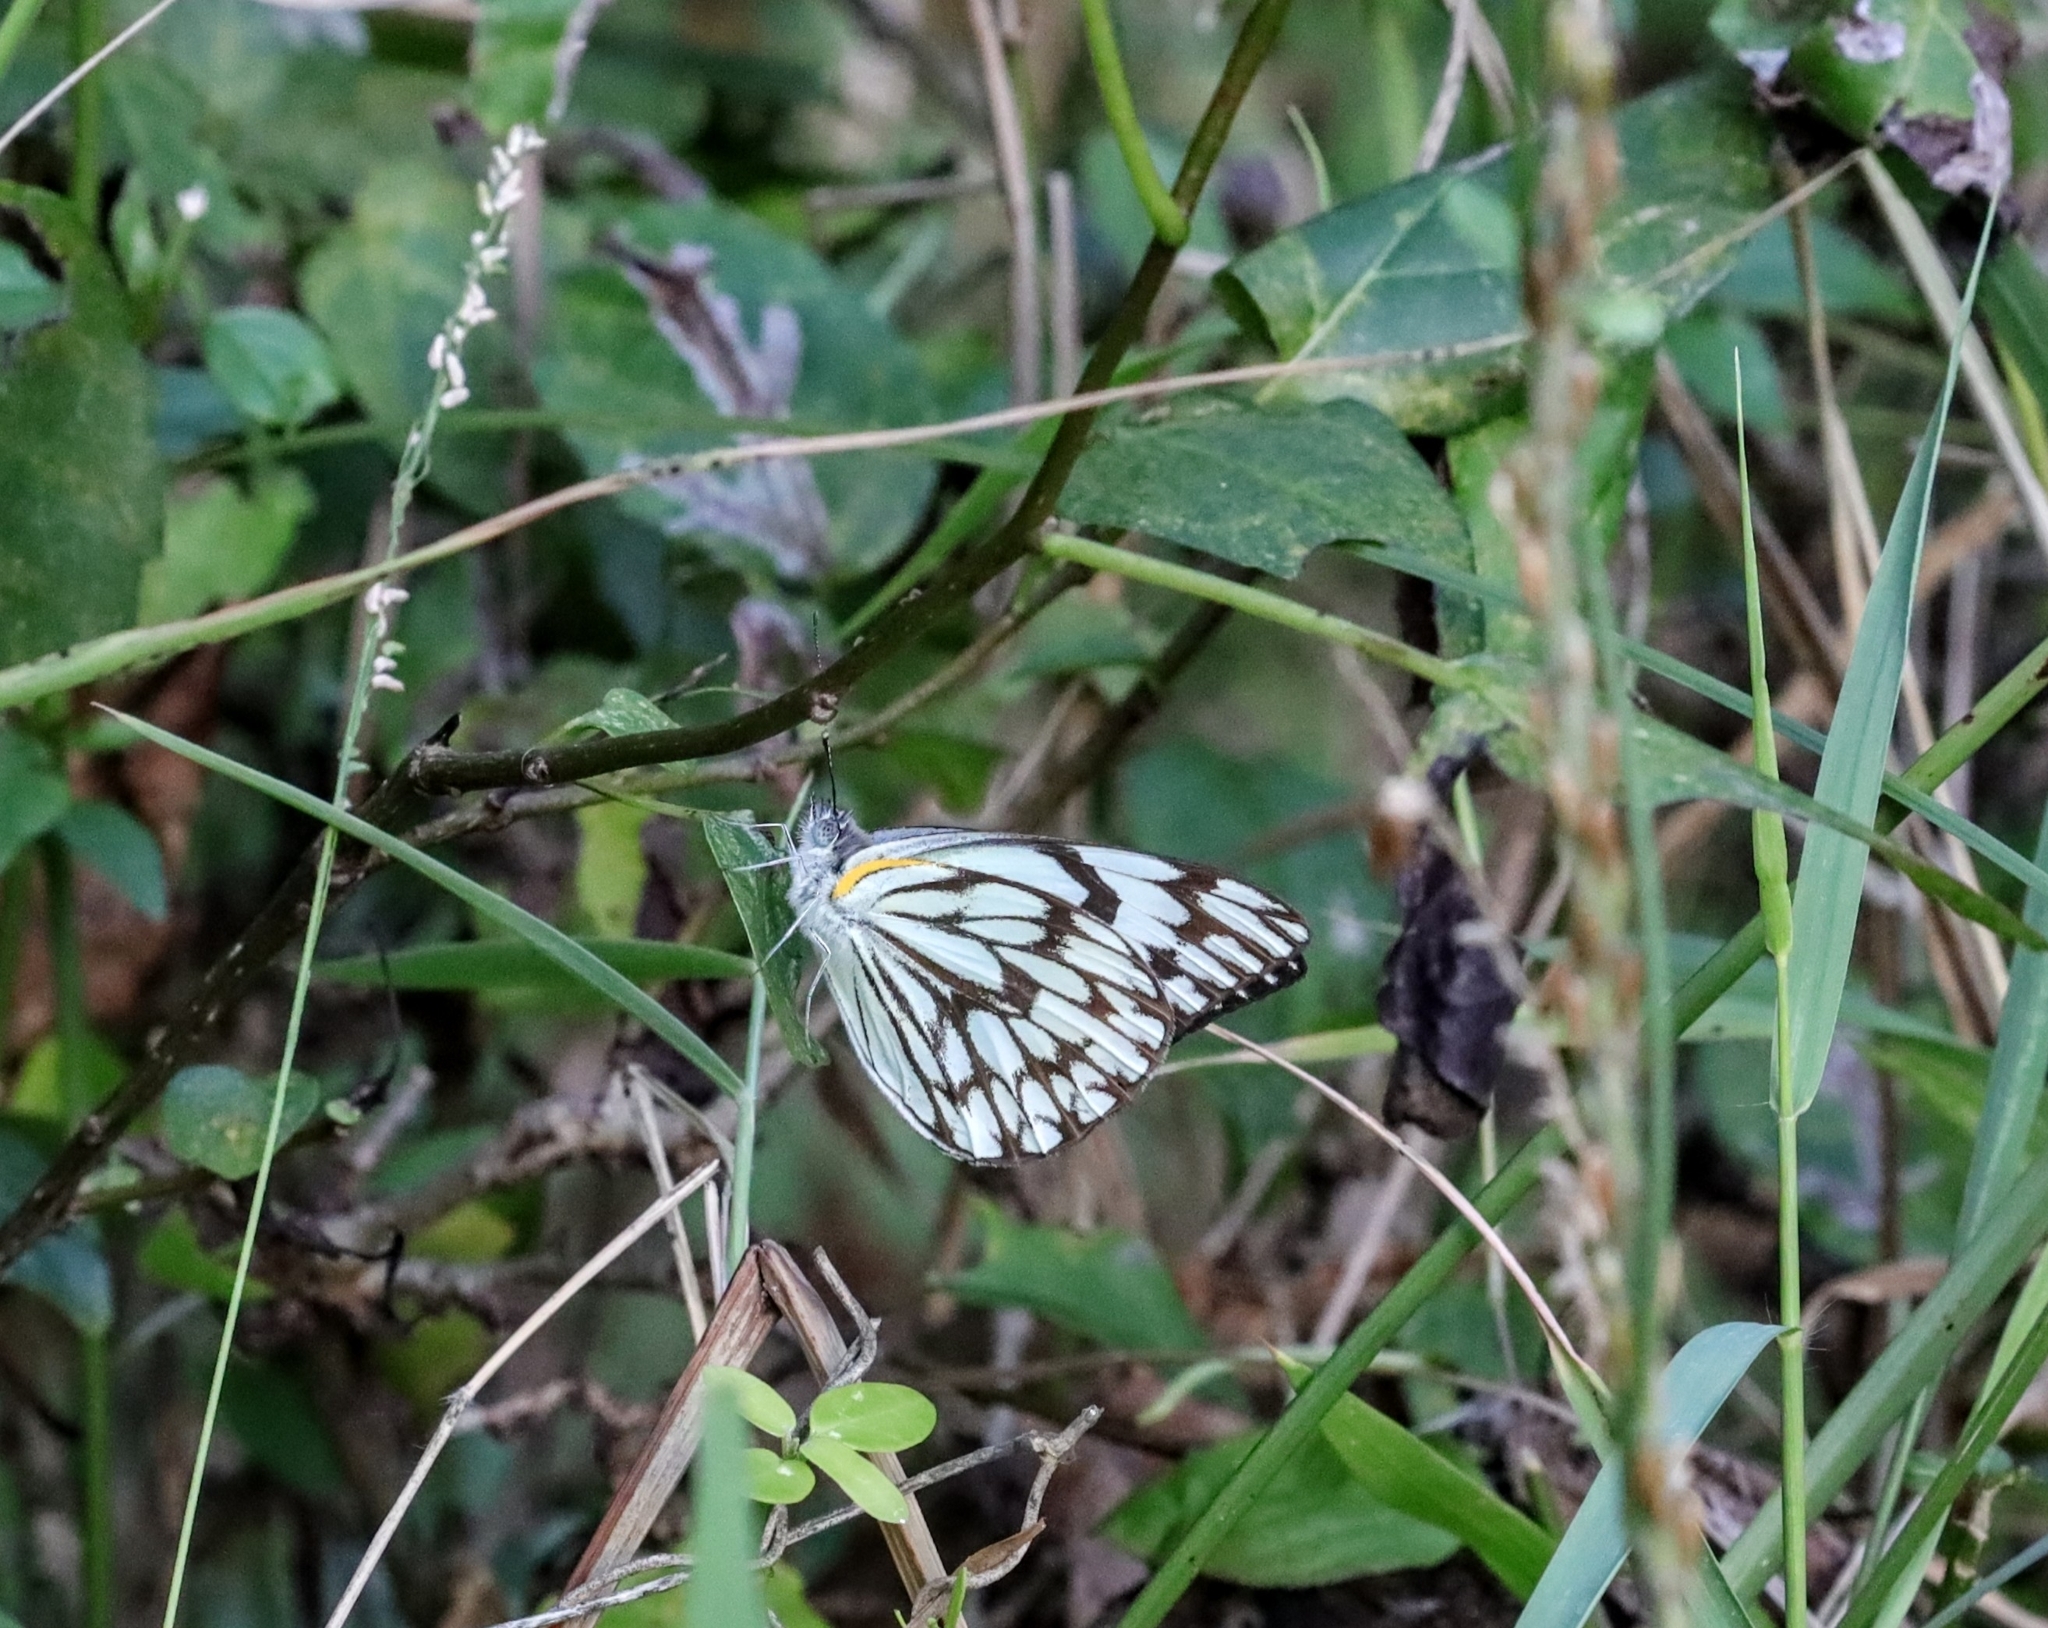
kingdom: Animalia
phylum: Arthropoda
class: Insecta
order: Lepidoptera
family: Pieridae
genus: Belenois
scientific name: Belenois gidica
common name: Pointed caper white
